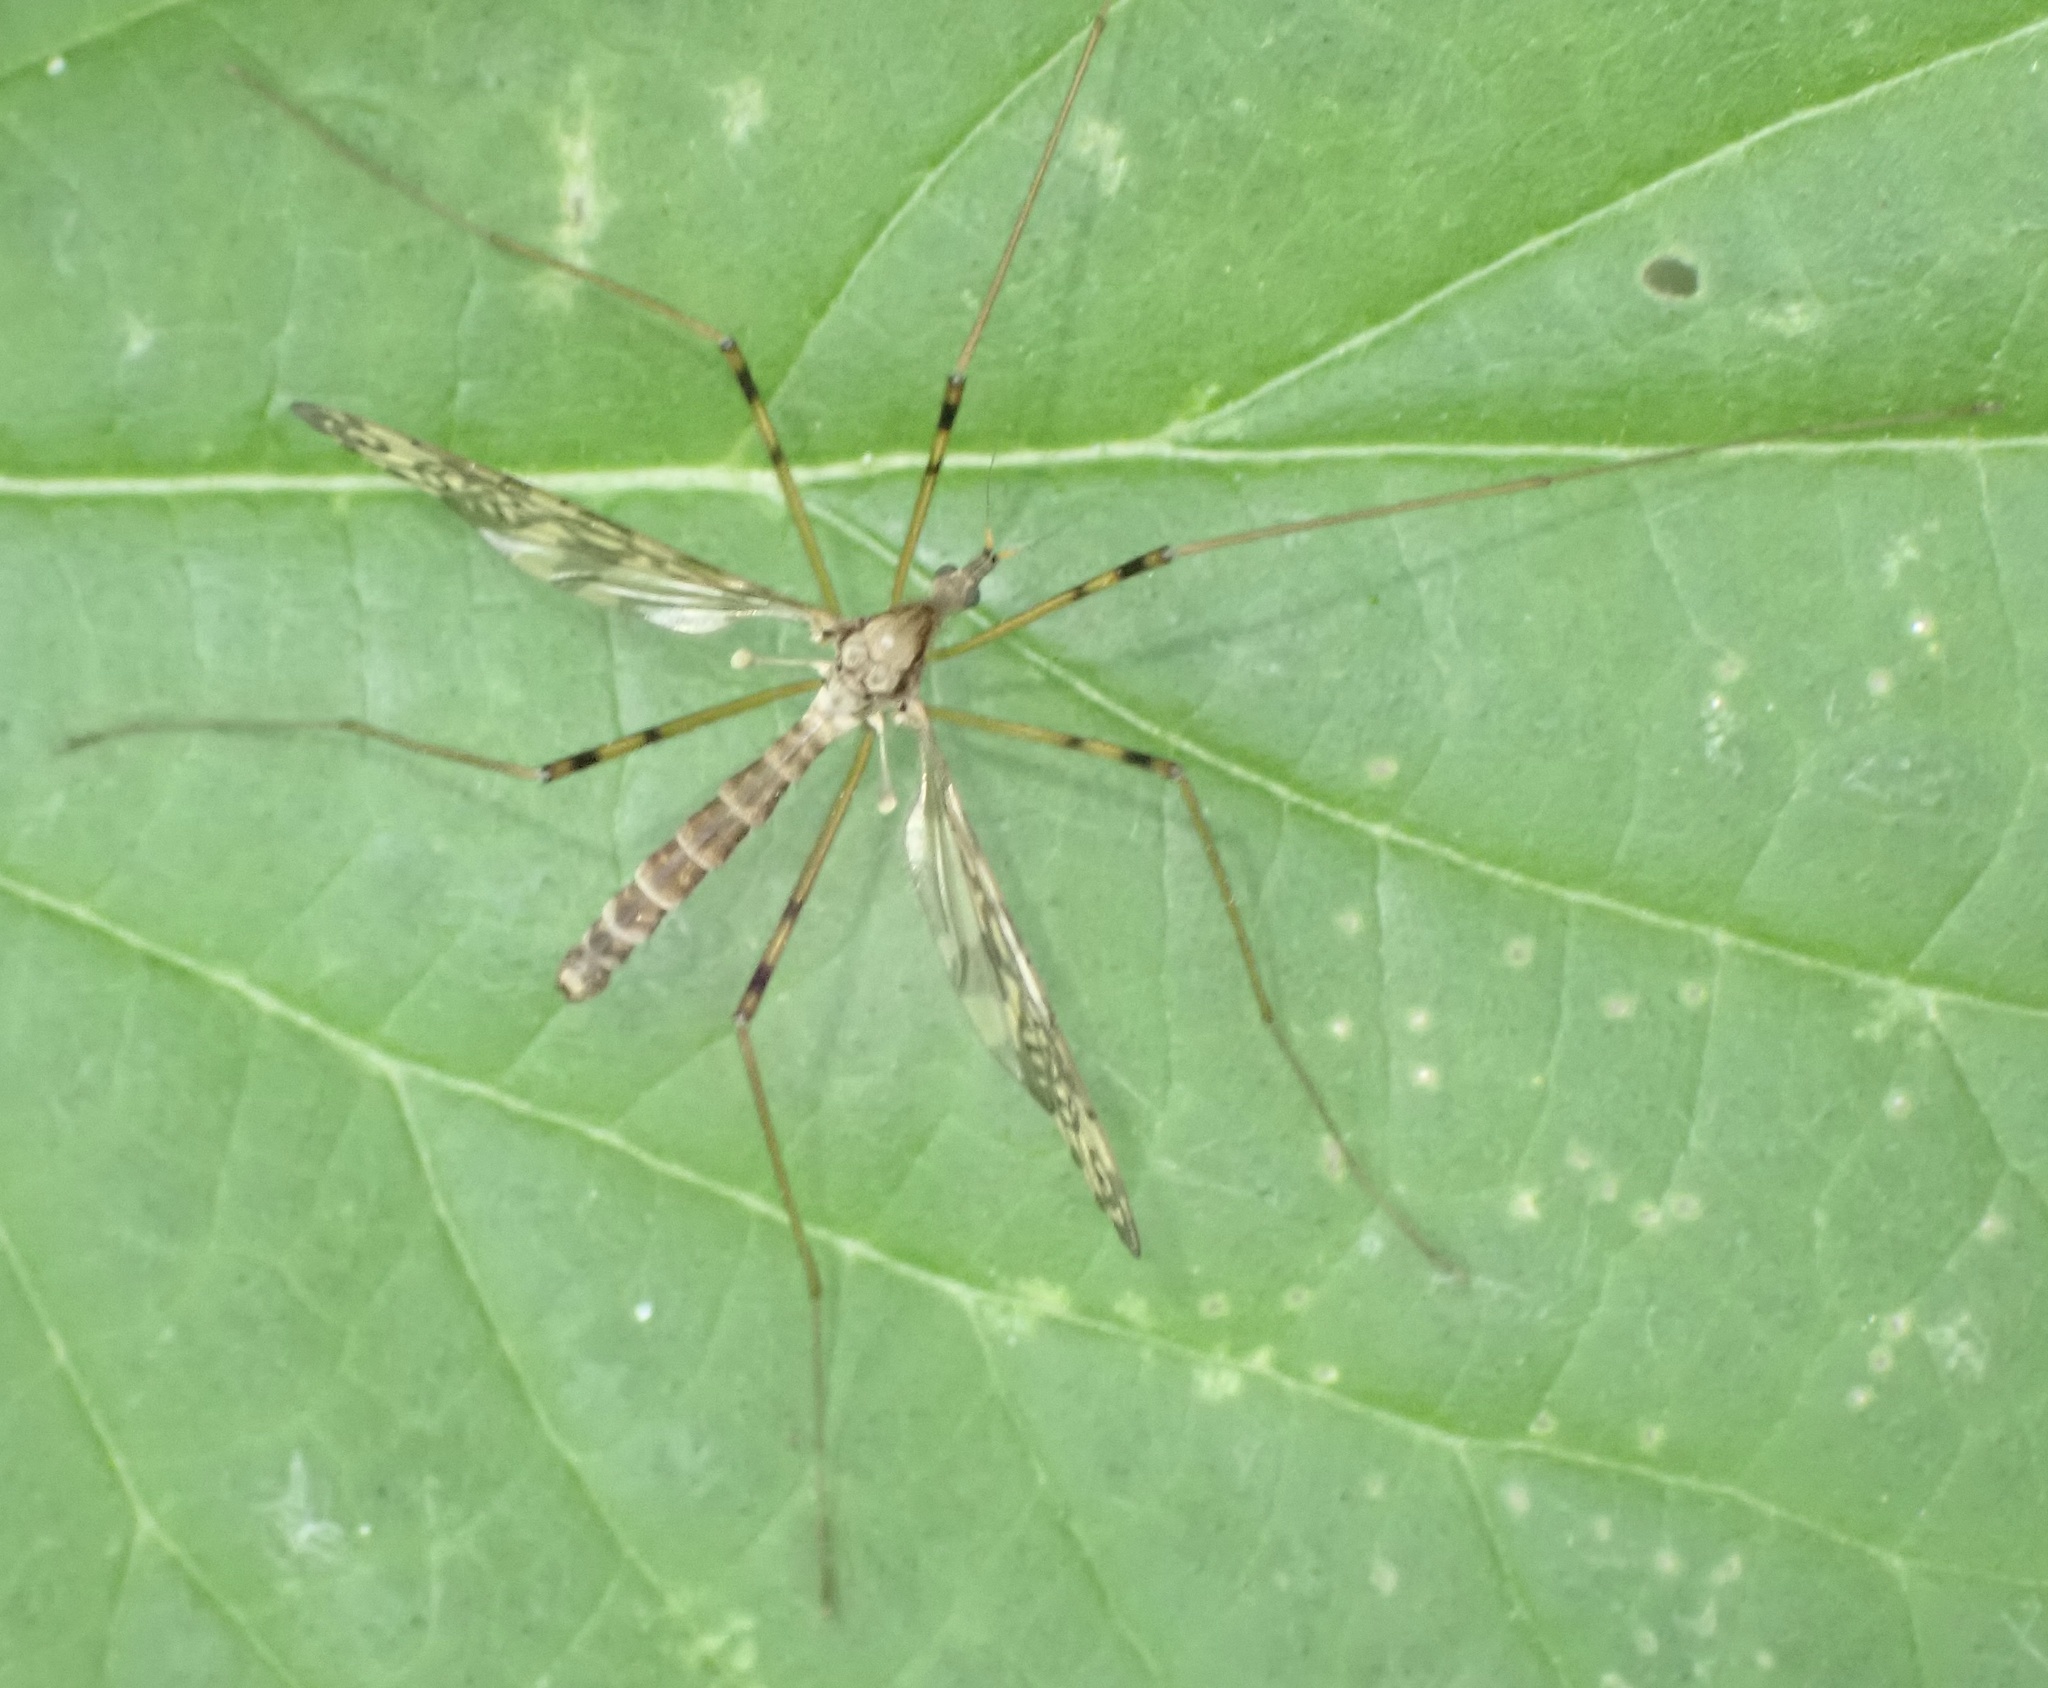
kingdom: Animalia
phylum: Arthropoda
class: Insecta
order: Diptera
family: Limoniidae
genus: Epiphragma
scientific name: Epiphragma ocellare
